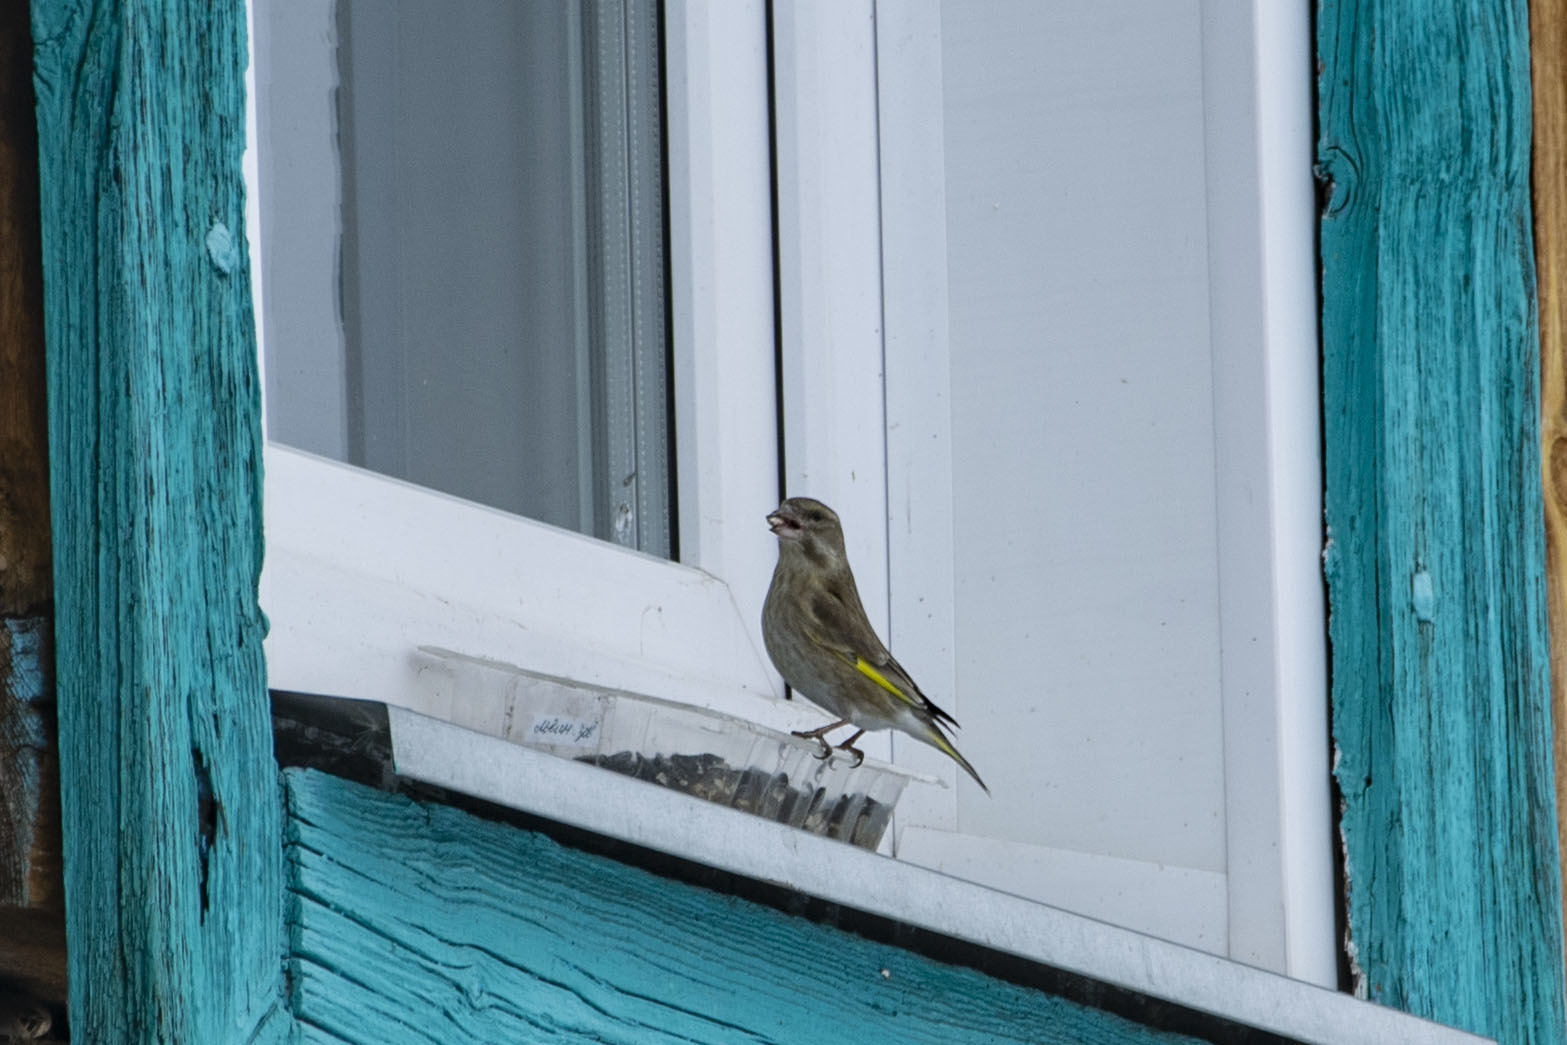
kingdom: Plantae
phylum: Tracheophyta
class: Liliopsida
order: Poales
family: Poaceae
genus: Chloris
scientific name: Chloris chloris
